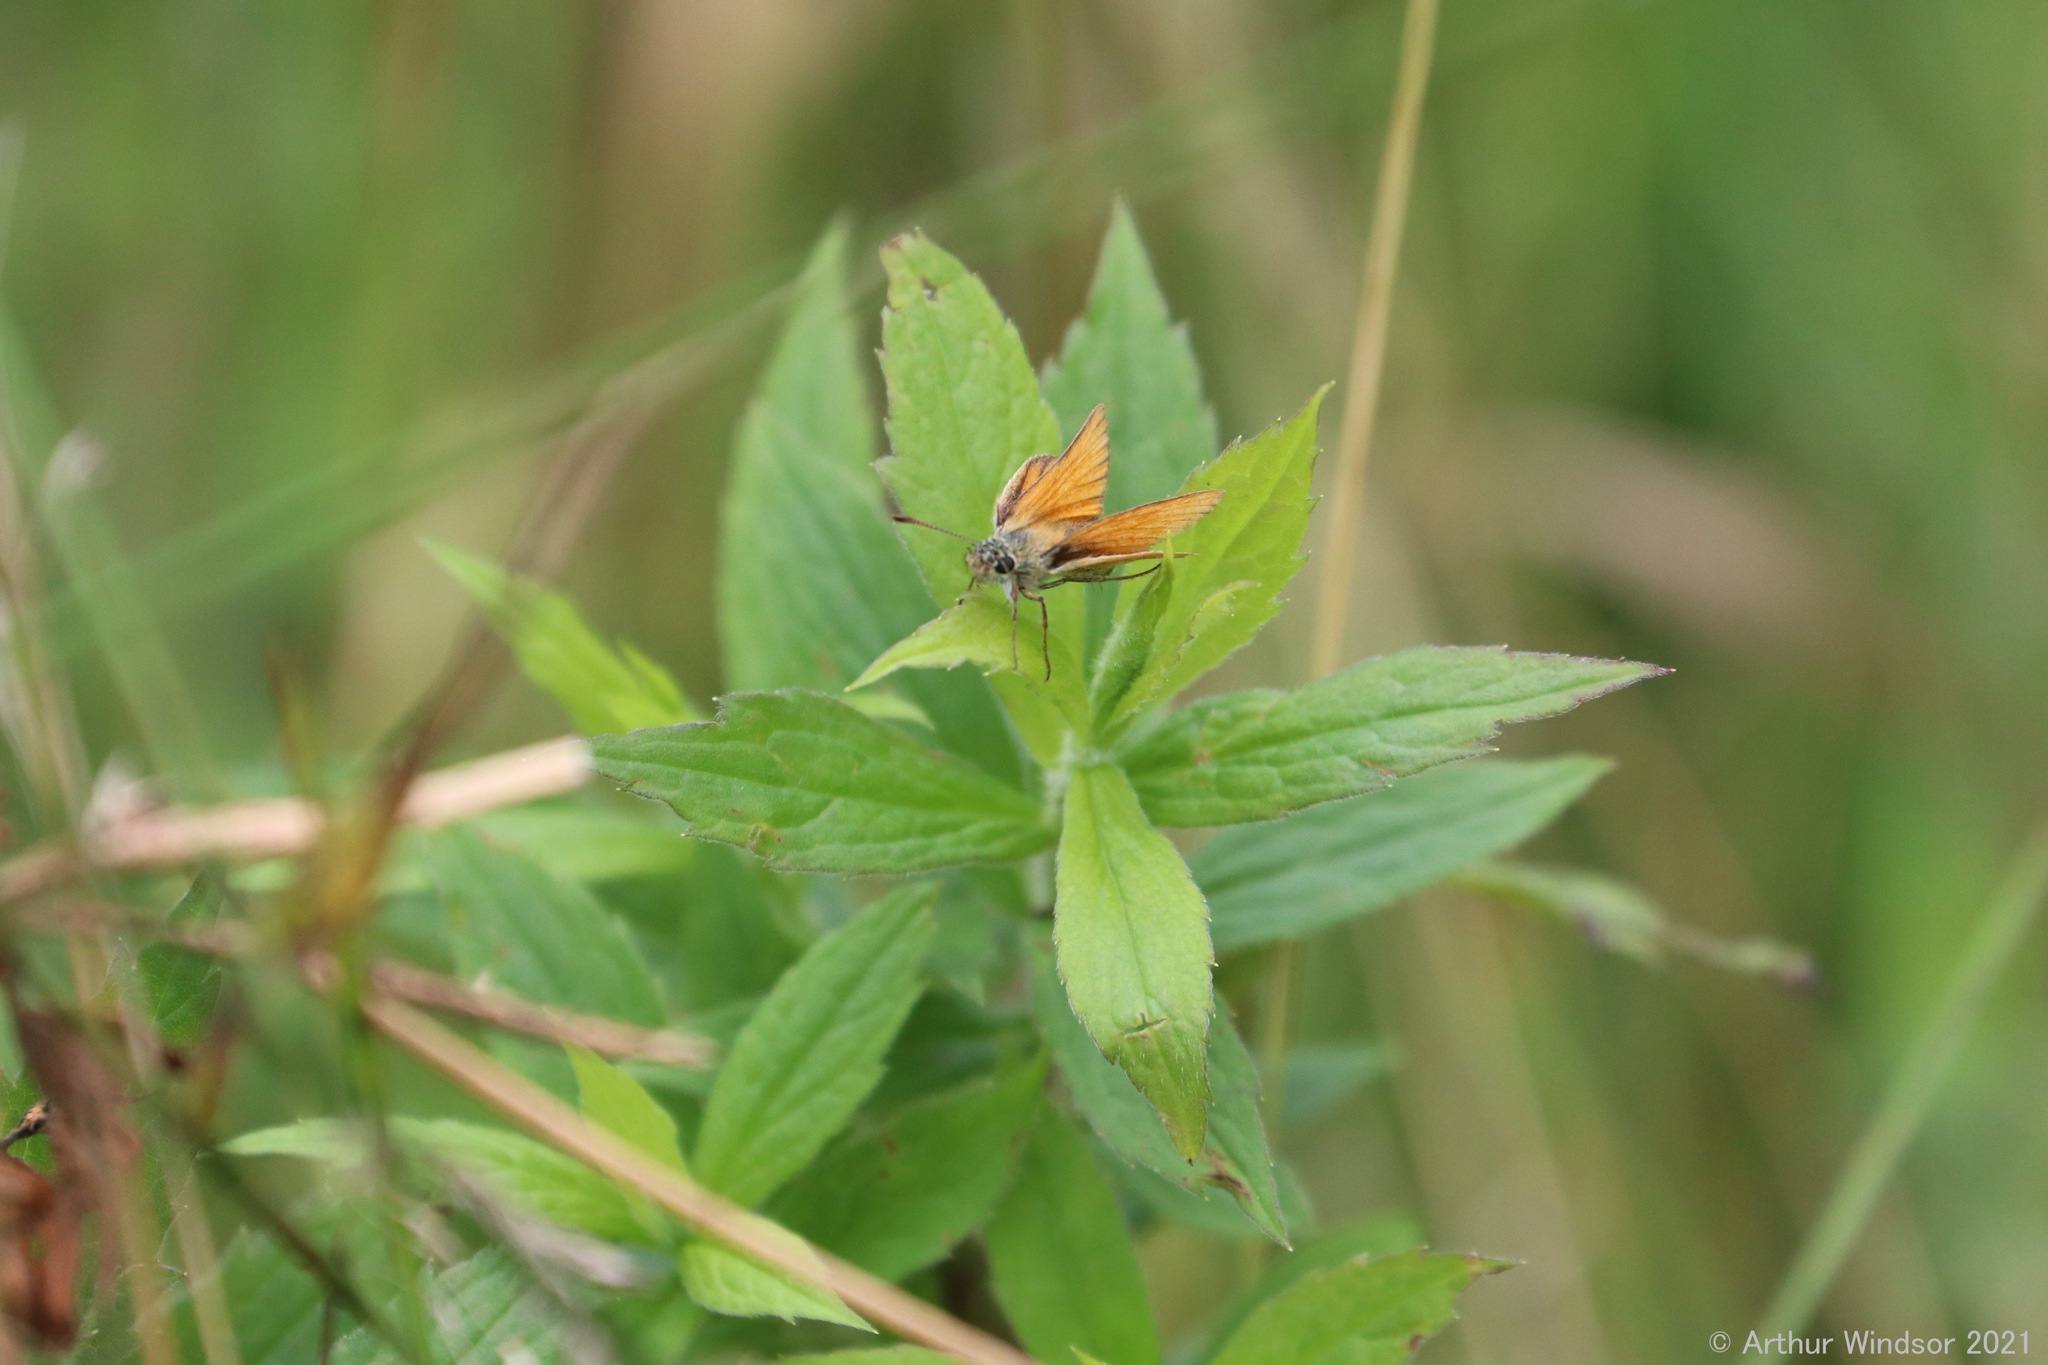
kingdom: Animalia
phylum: Arthropoda
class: Insecta
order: Lepidoptera
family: Hesperiidae
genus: Thymelicus
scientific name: Thymelicus lineola
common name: Essex skipper
